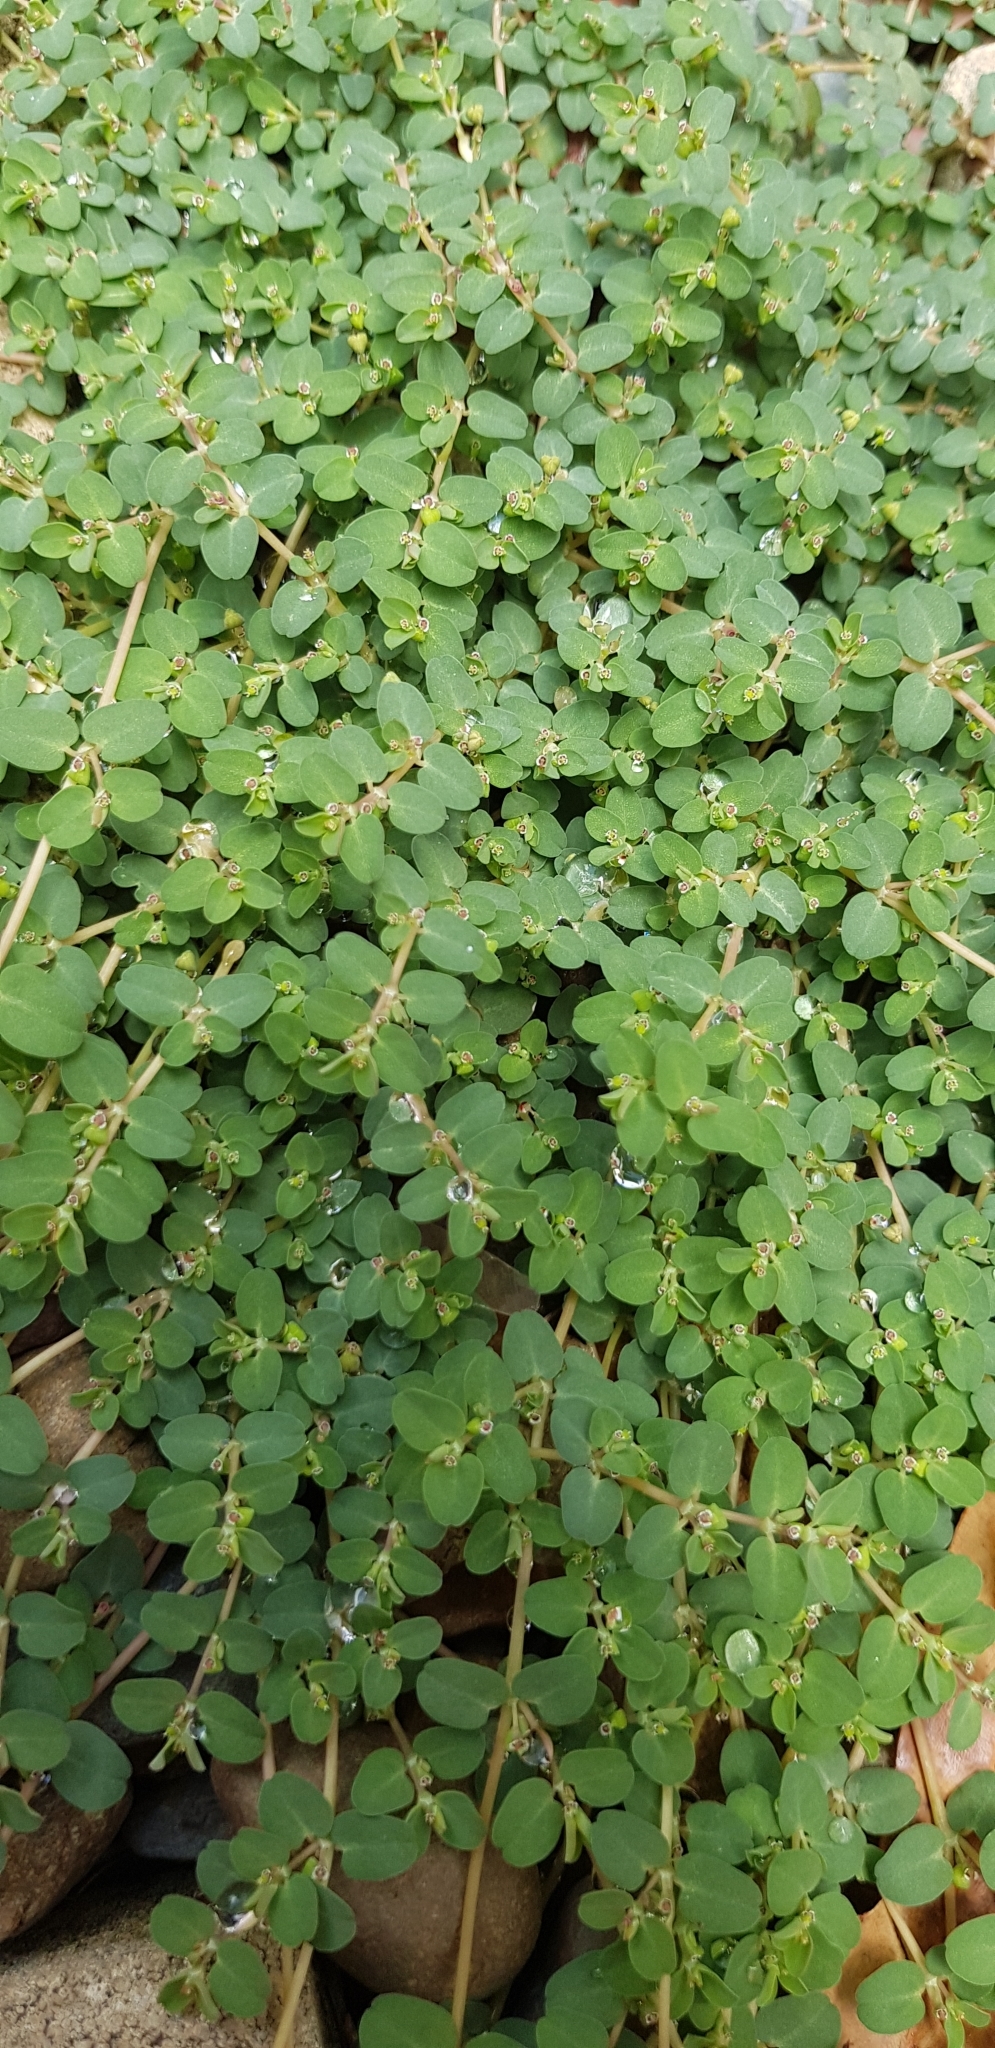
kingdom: Plantae
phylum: Tracheophyta
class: Magnoliopsida
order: Malpighiales
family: Euphorbiaceae
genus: Euphorbia
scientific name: Euphorbia serpens
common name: Matted sandmat
